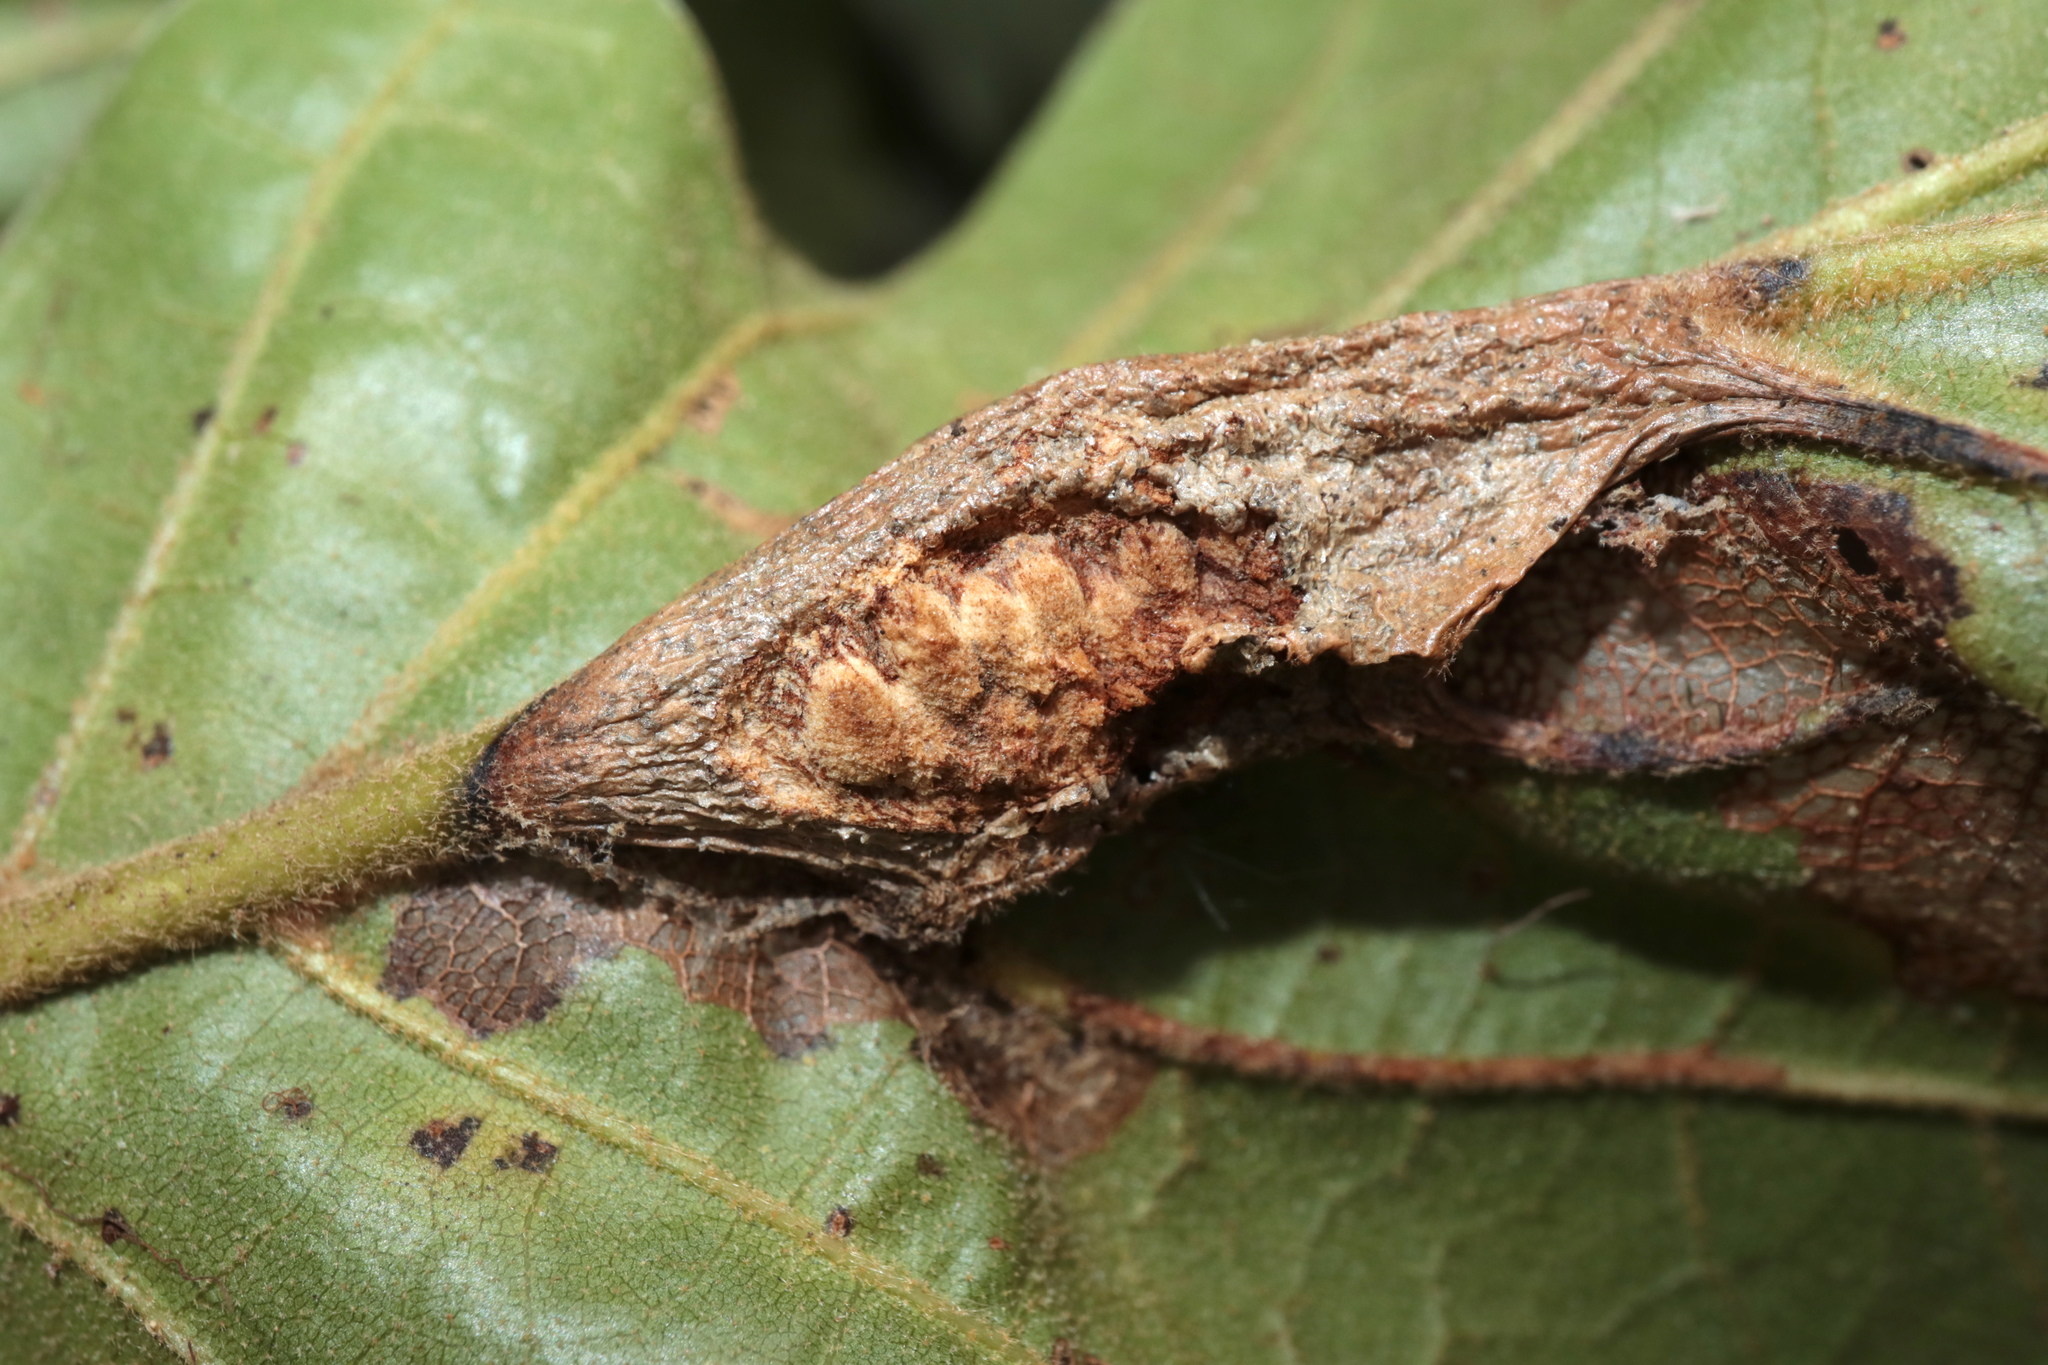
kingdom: Animalia
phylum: Arthropoda
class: Insecta
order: Hymenoptera
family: Cynipidae
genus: Melikaiella
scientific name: Melikaiella tumifica
